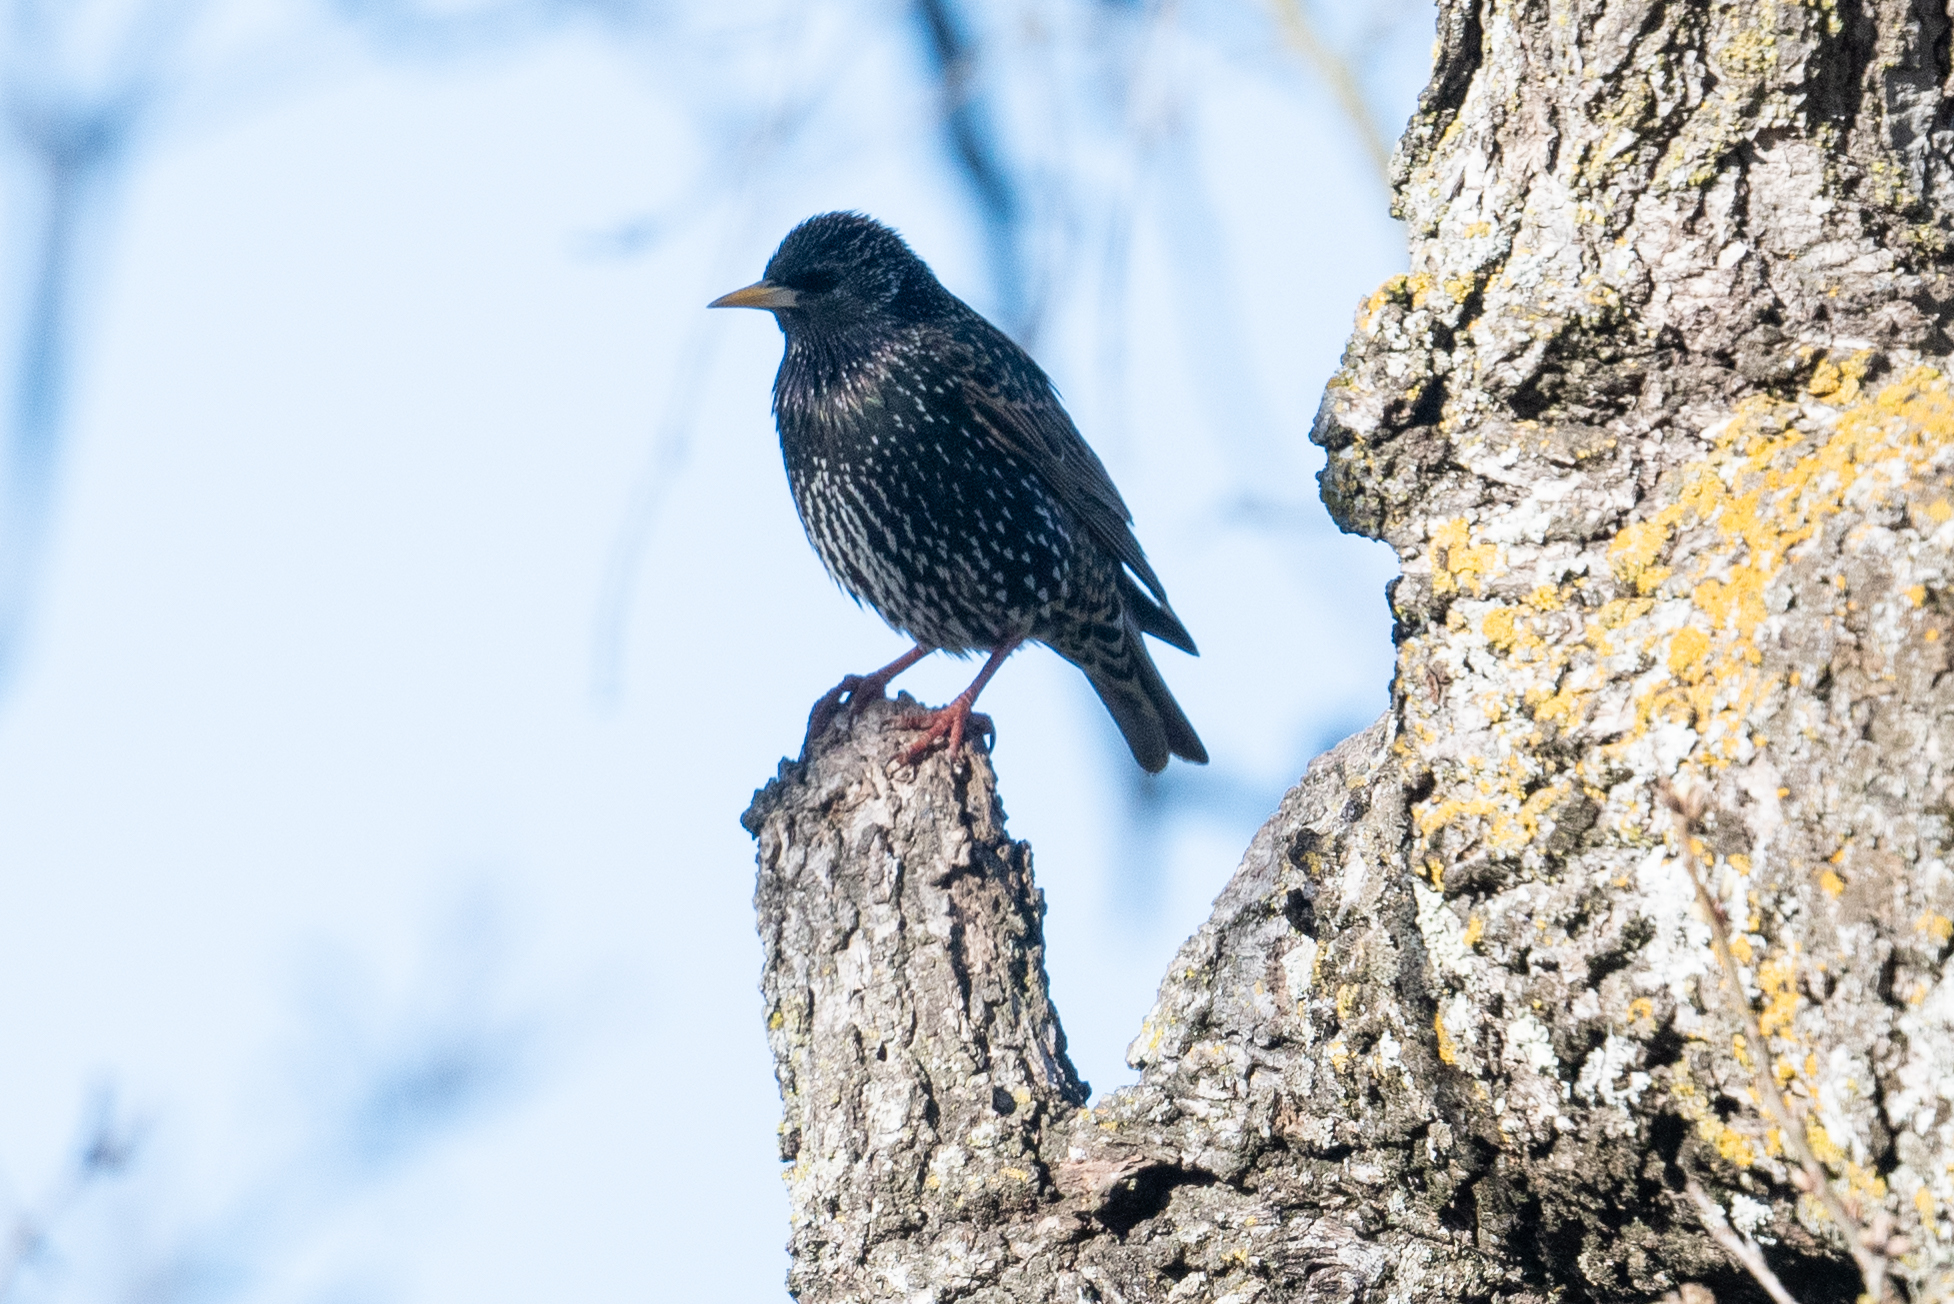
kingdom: Animalia
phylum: Chordata
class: Aves
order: Passeriformes
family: Sturnidae
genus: Sturnus
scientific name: Sturnus vulgaris
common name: Common starling
